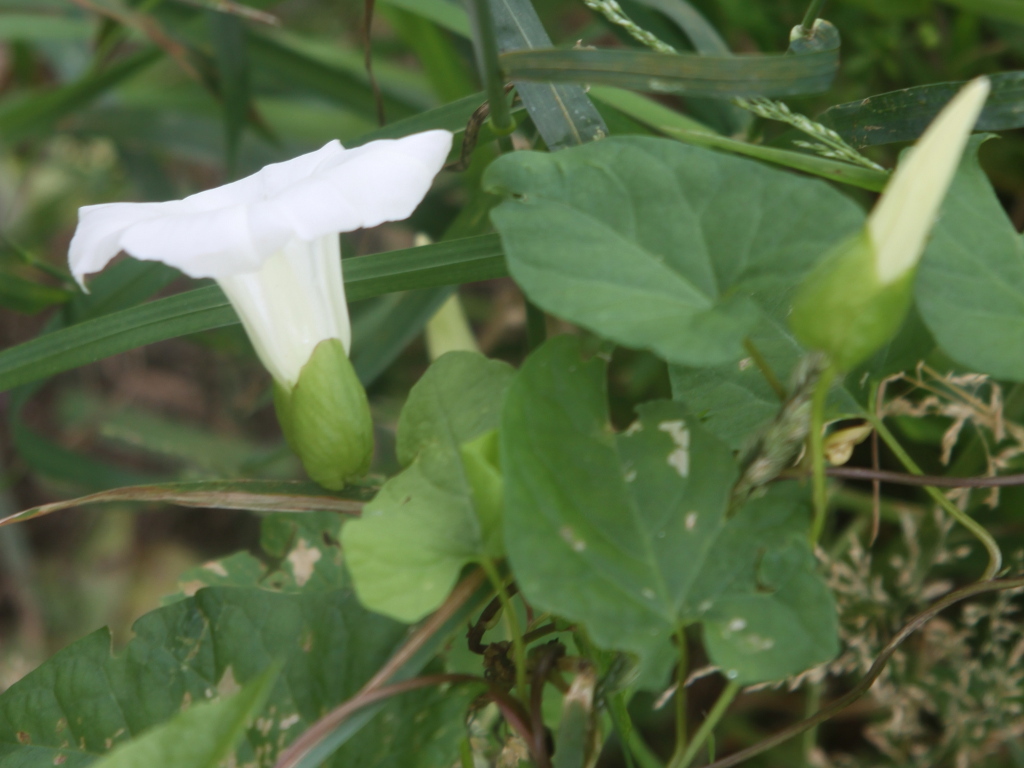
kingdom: Plantae
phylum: Tracheophyta
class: Magnoliopsida
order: Solanales
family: Convolvulaceae
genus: Calystegia
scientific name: Calystegia silvatica
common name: Large bindweed
